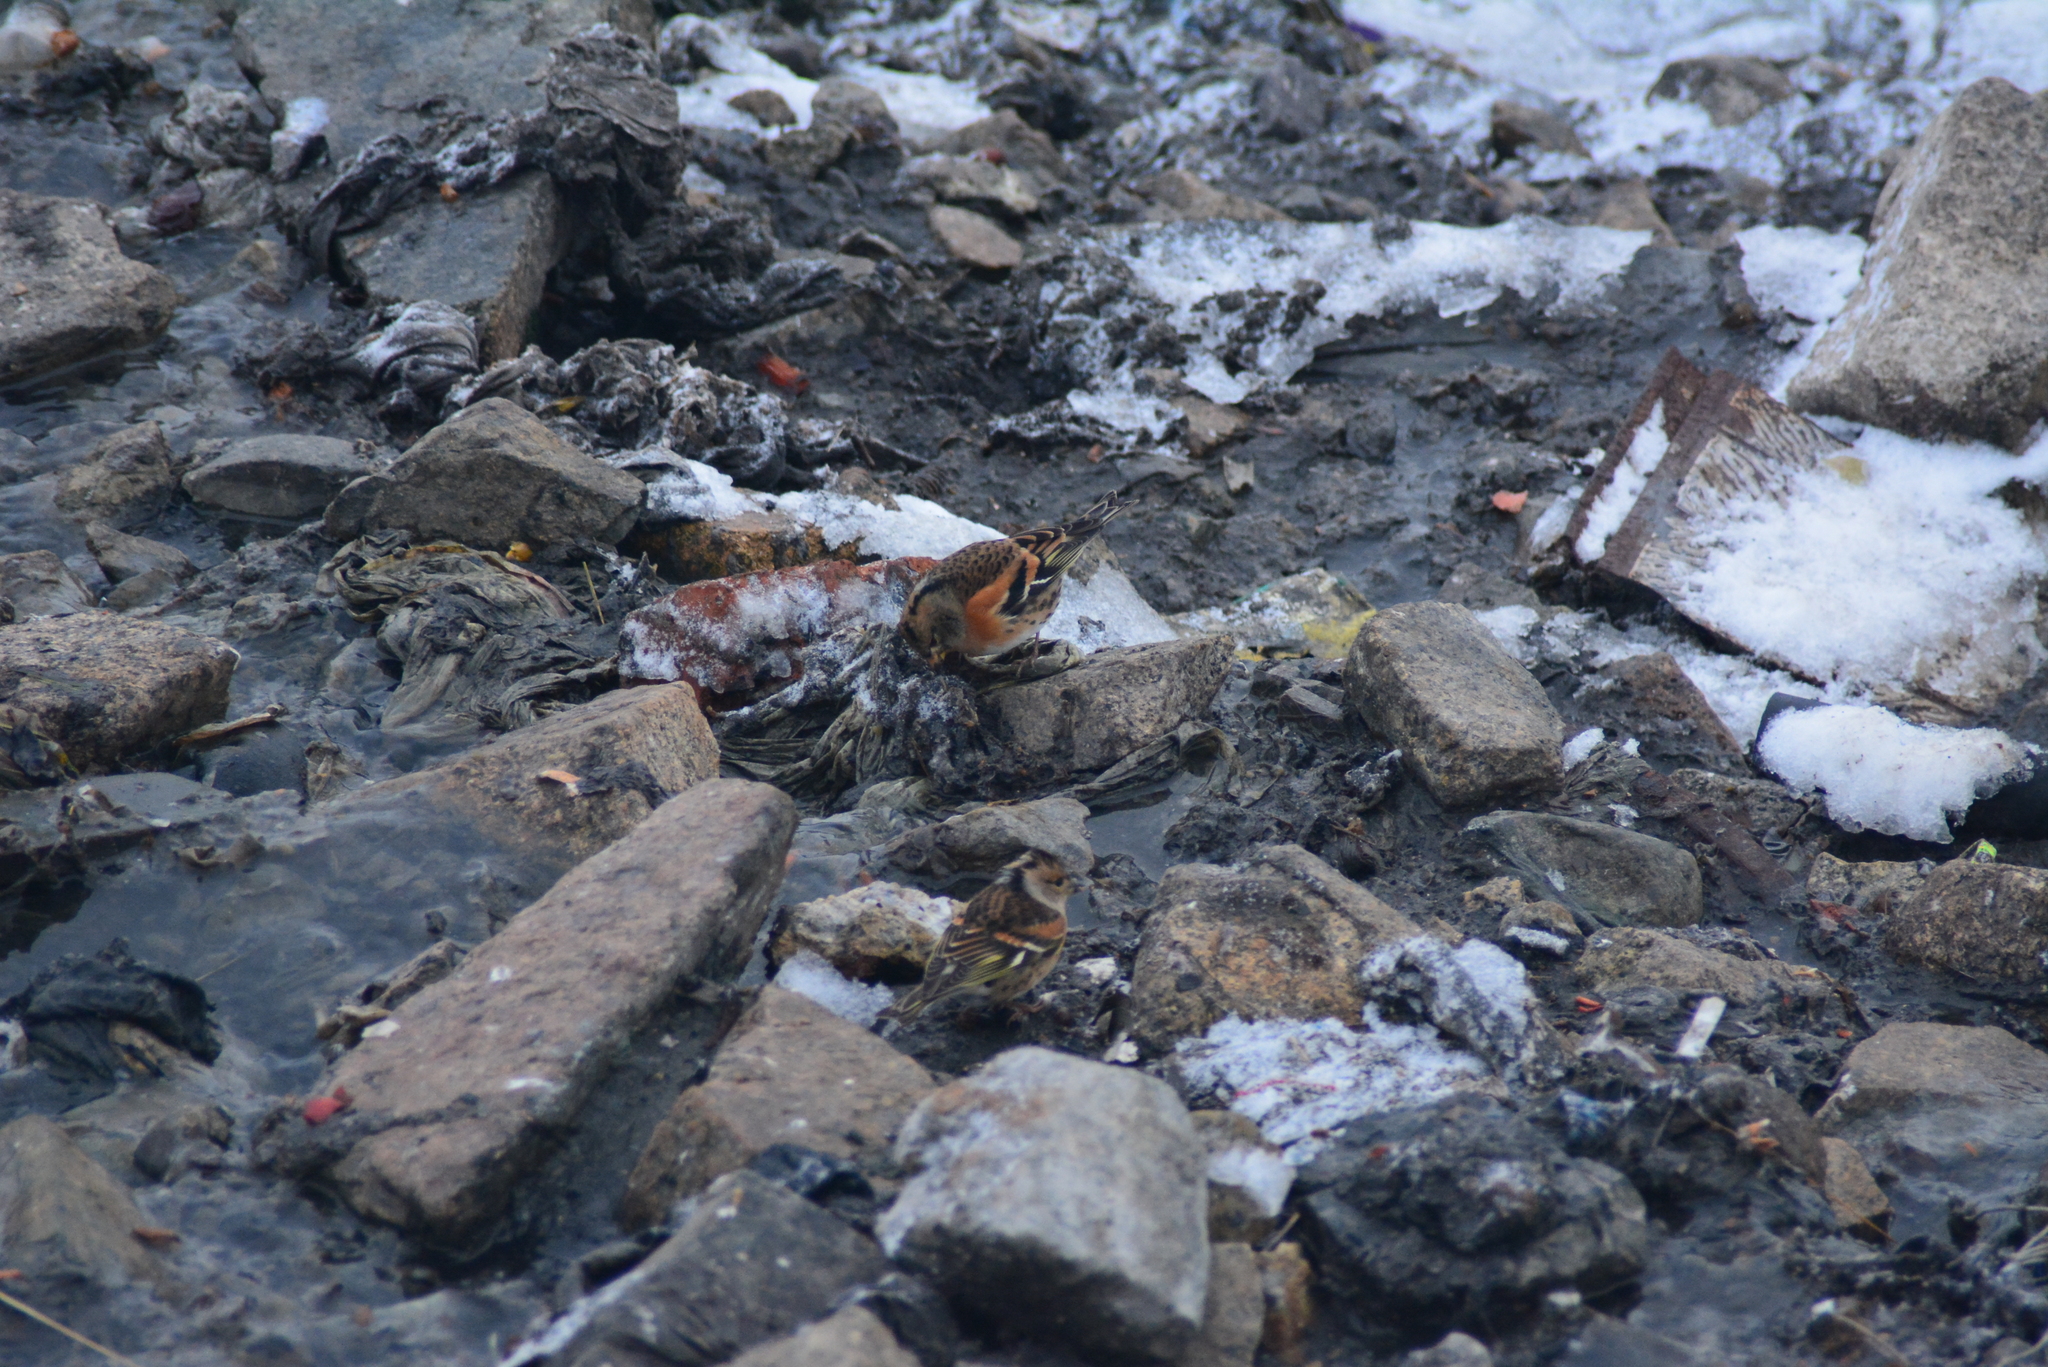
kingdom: Animalia
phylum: Chordata
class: Aves
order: Passeriformes
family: Fringillidae
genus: Fringilla
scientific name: Fringilla montifringilla
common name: Brambling
